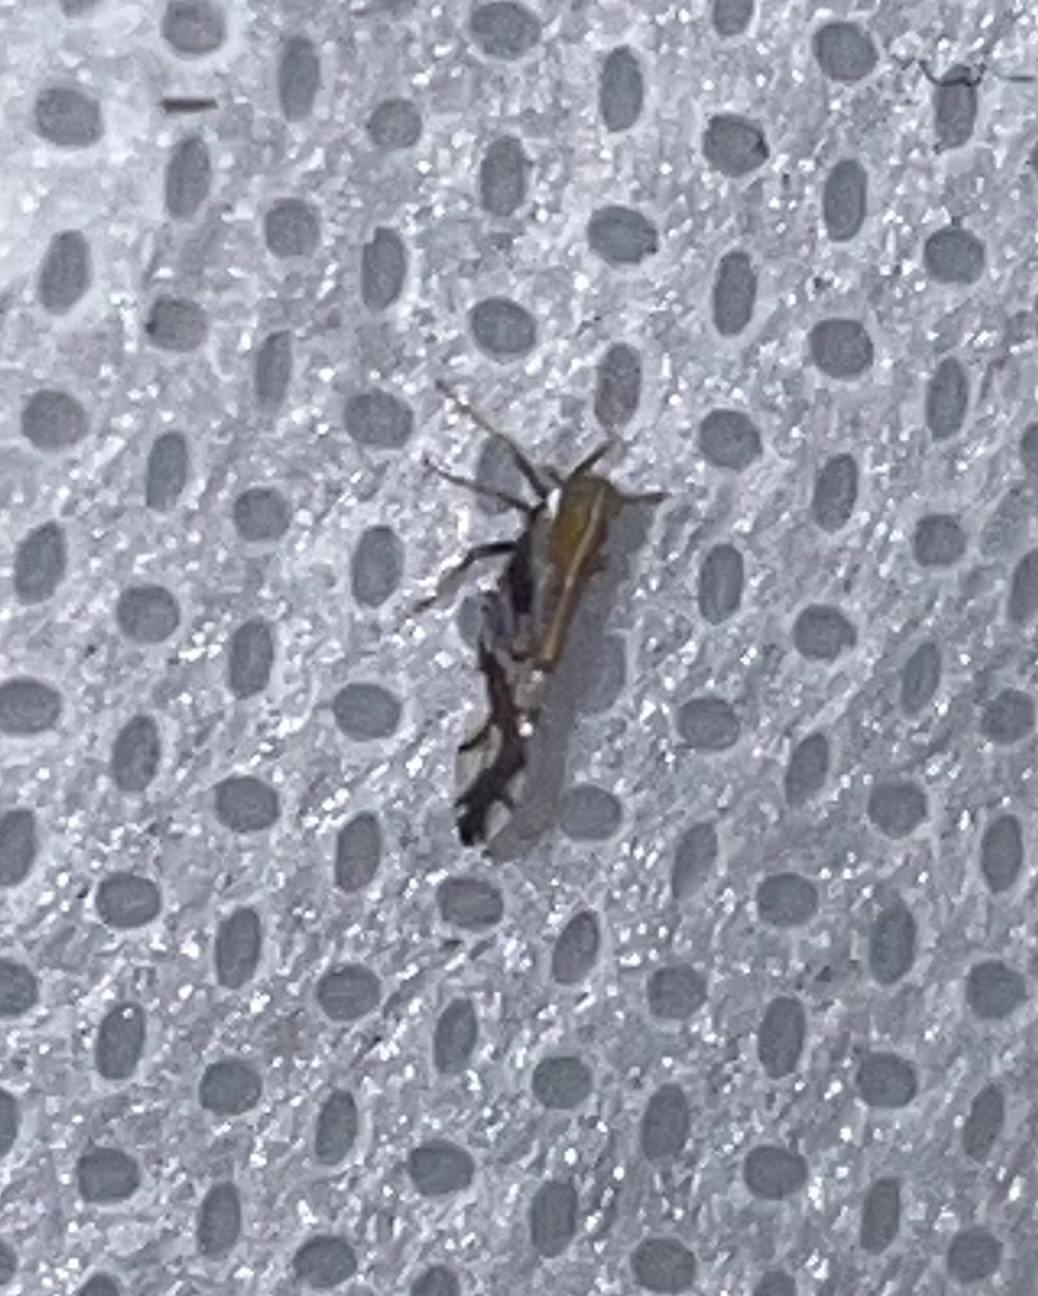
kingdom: Animalia
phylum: Arthropoda
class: Insecta
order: Hemiptera
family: Delphacidae
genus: Liburniella
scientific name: Liburniella ornata
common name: Ornate planthopper
